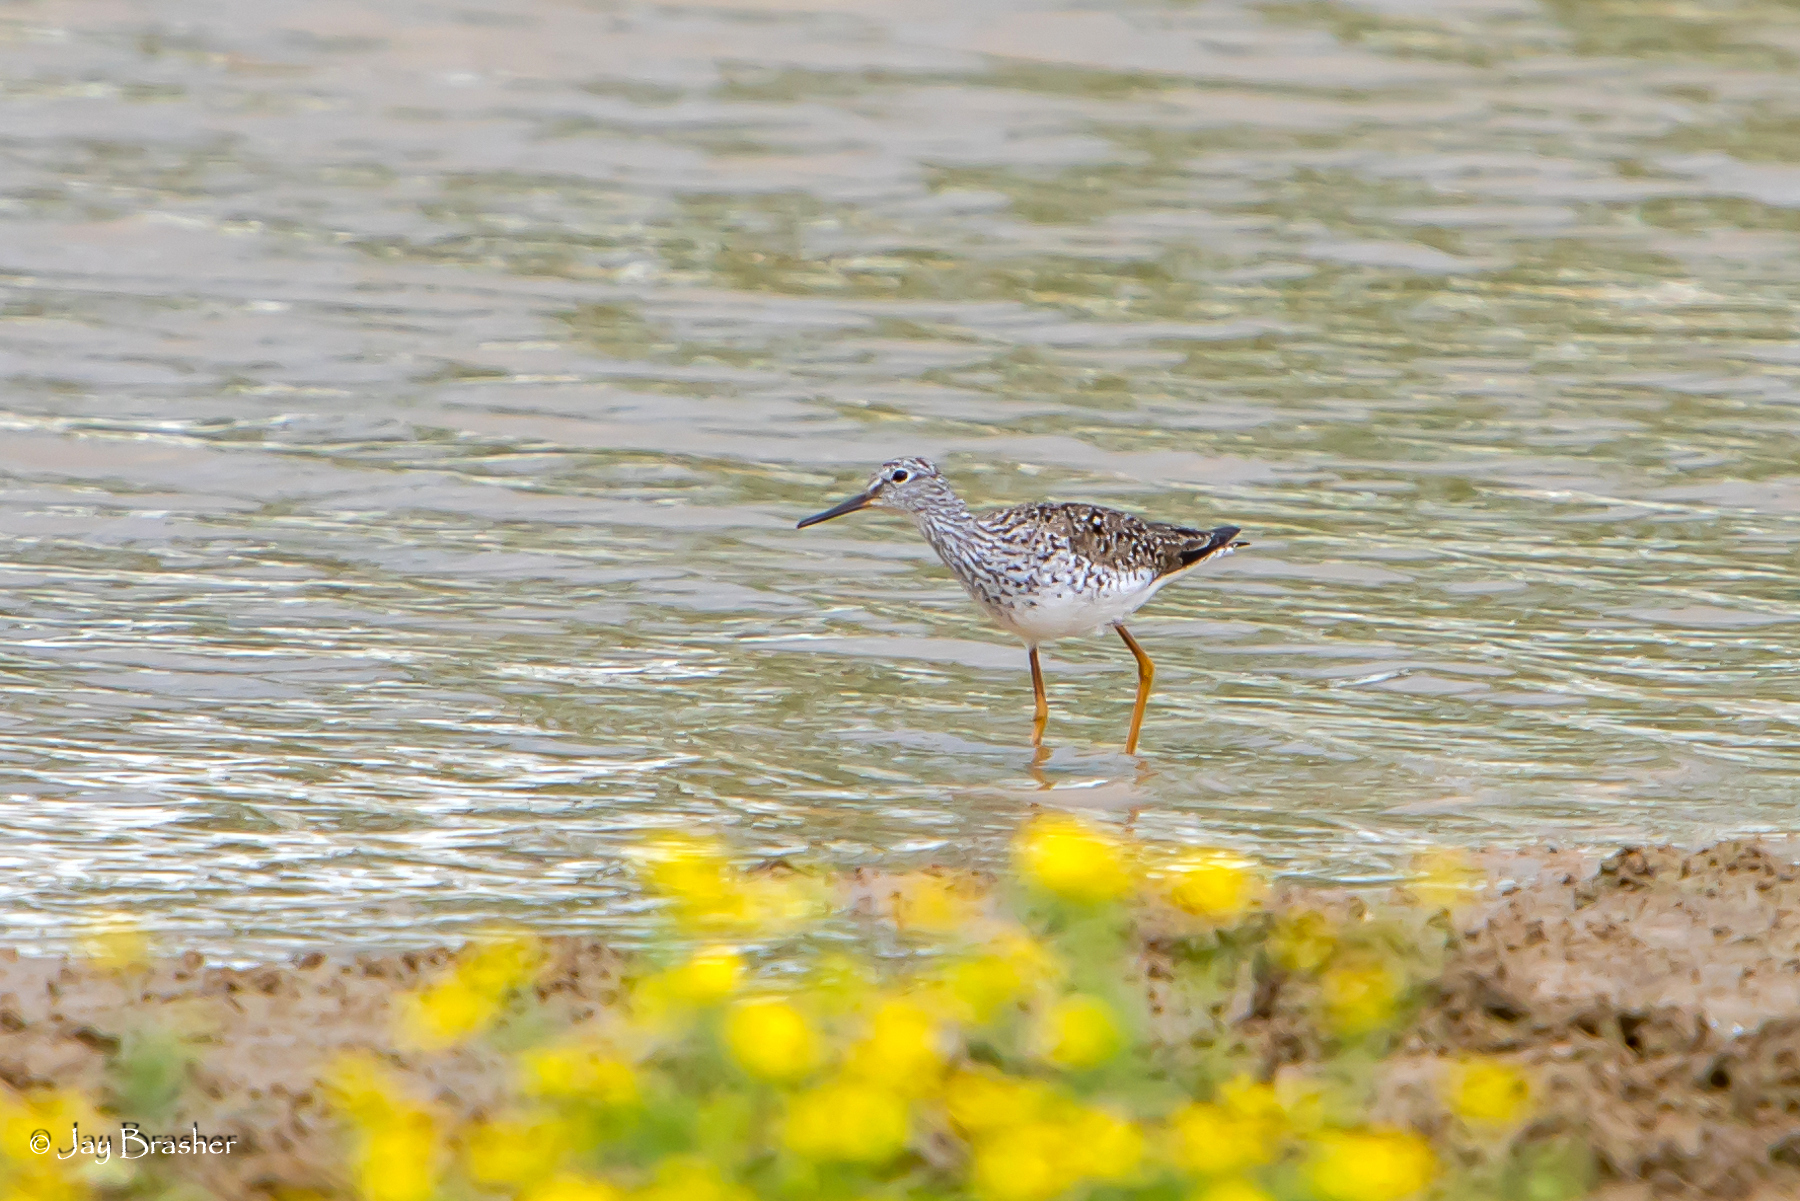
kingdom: Animalia
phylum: Chordata
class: Aves
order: Charadriiformes
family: Scolopacidae
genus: Tringa
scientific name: Tringa melanoleuca
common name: Greater yellowlegs
